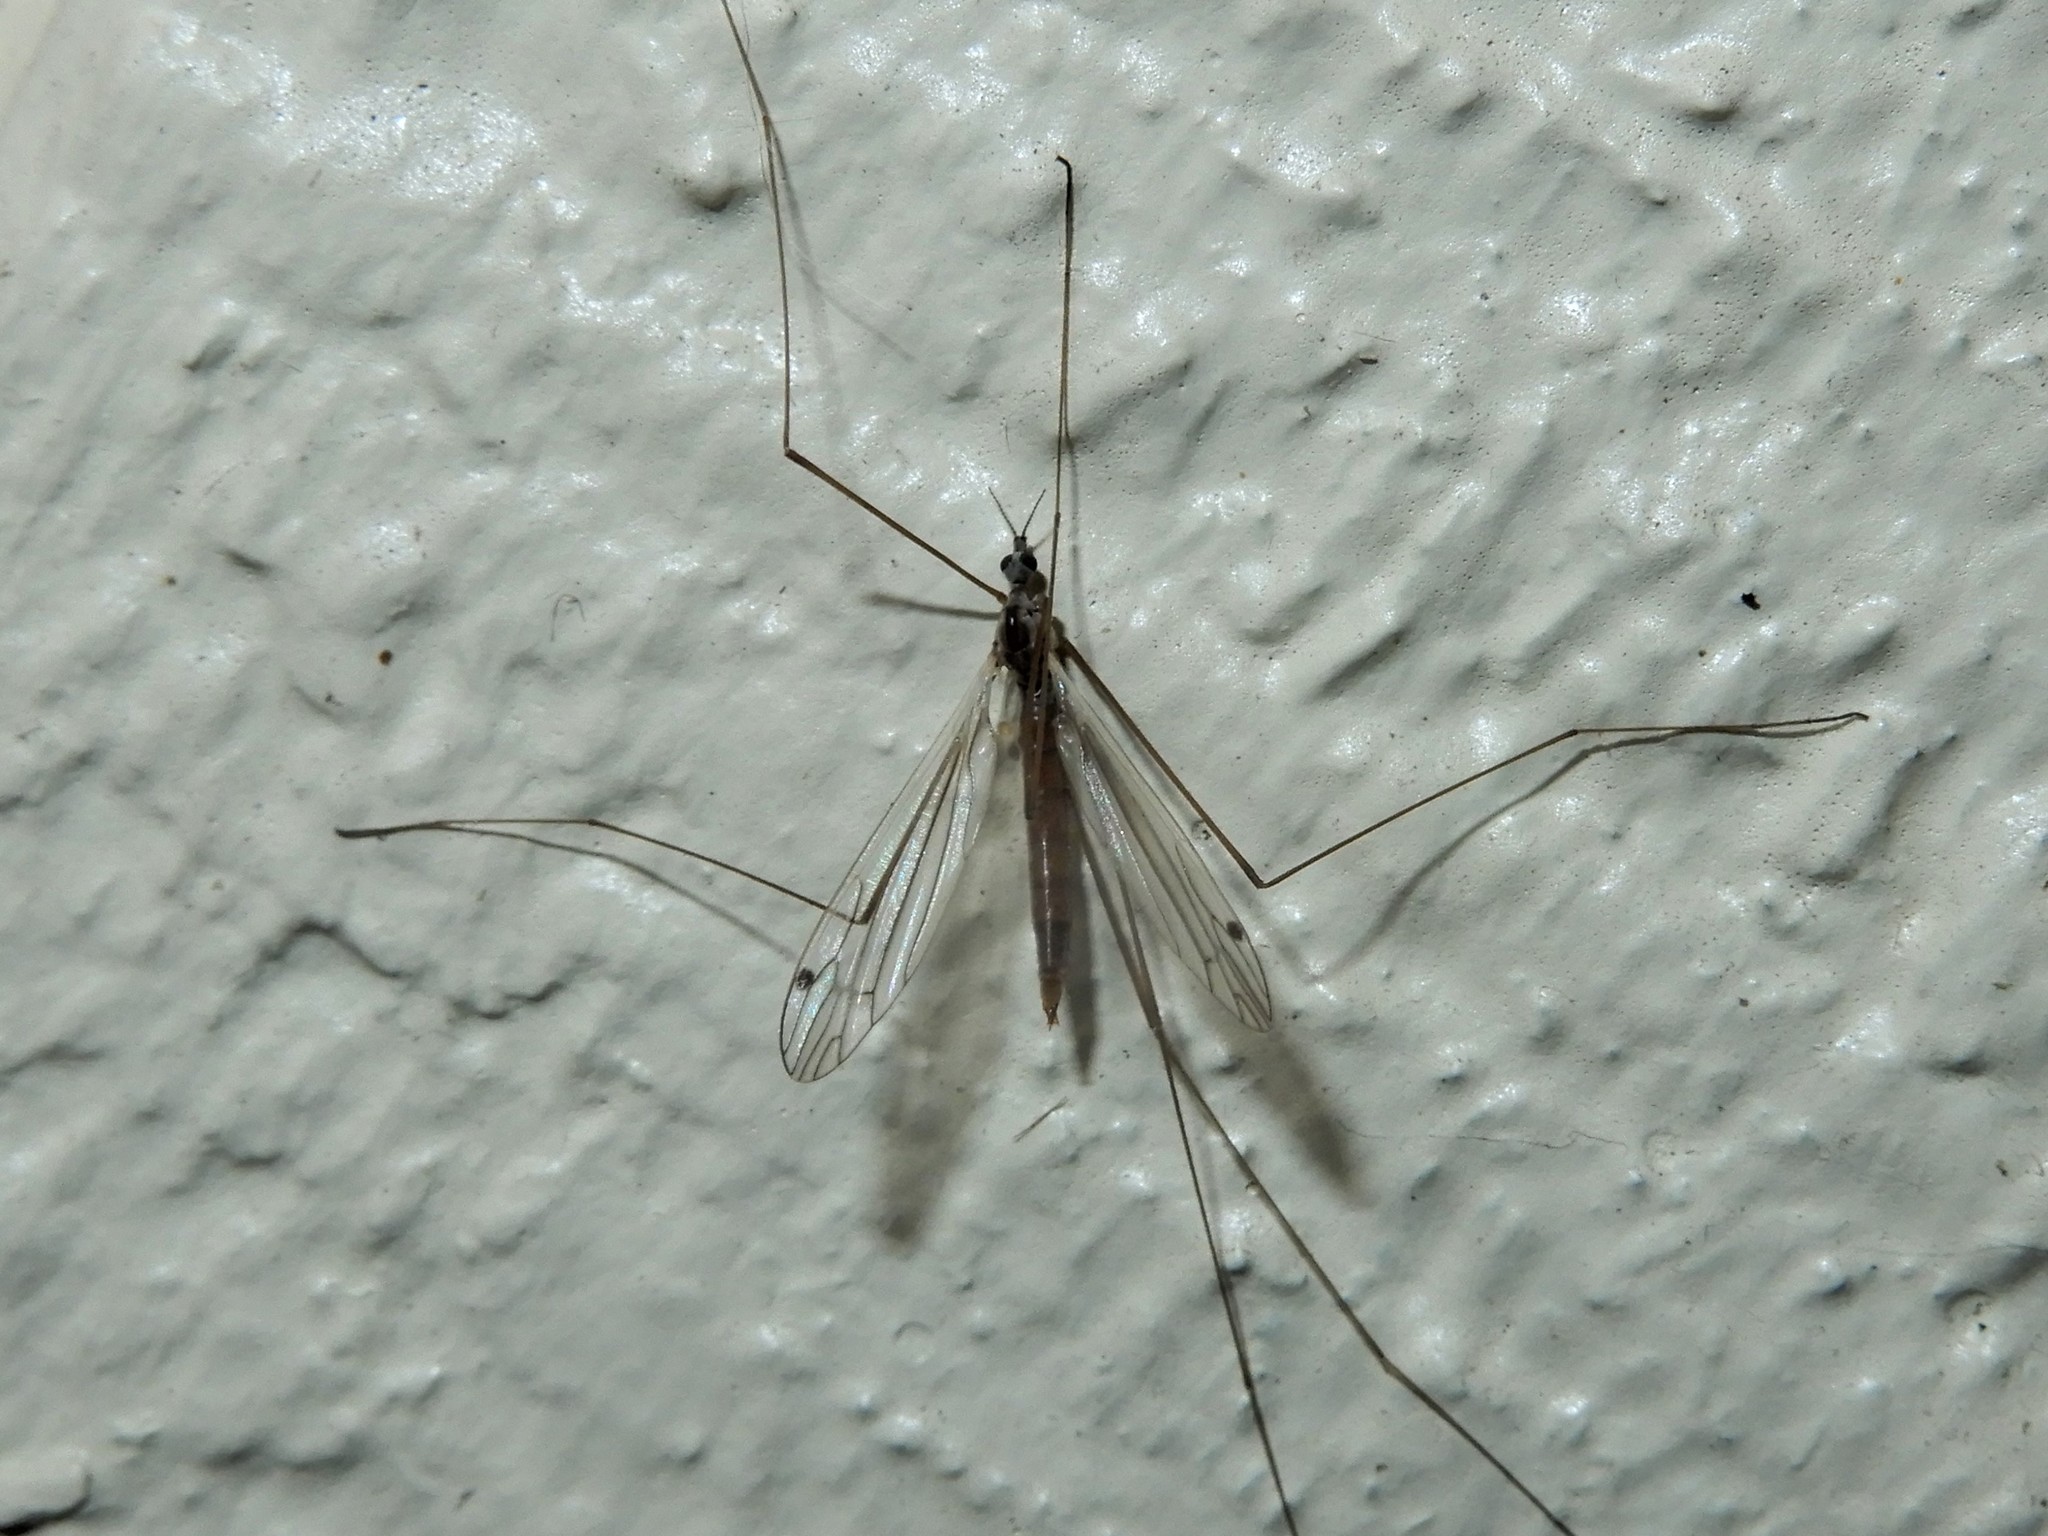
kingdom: Animalia
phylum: Arthropoda
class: Insecta
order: Diptera
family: Limoniidae
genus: Dicranomyia
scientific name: Dicranomyia aegrotans
